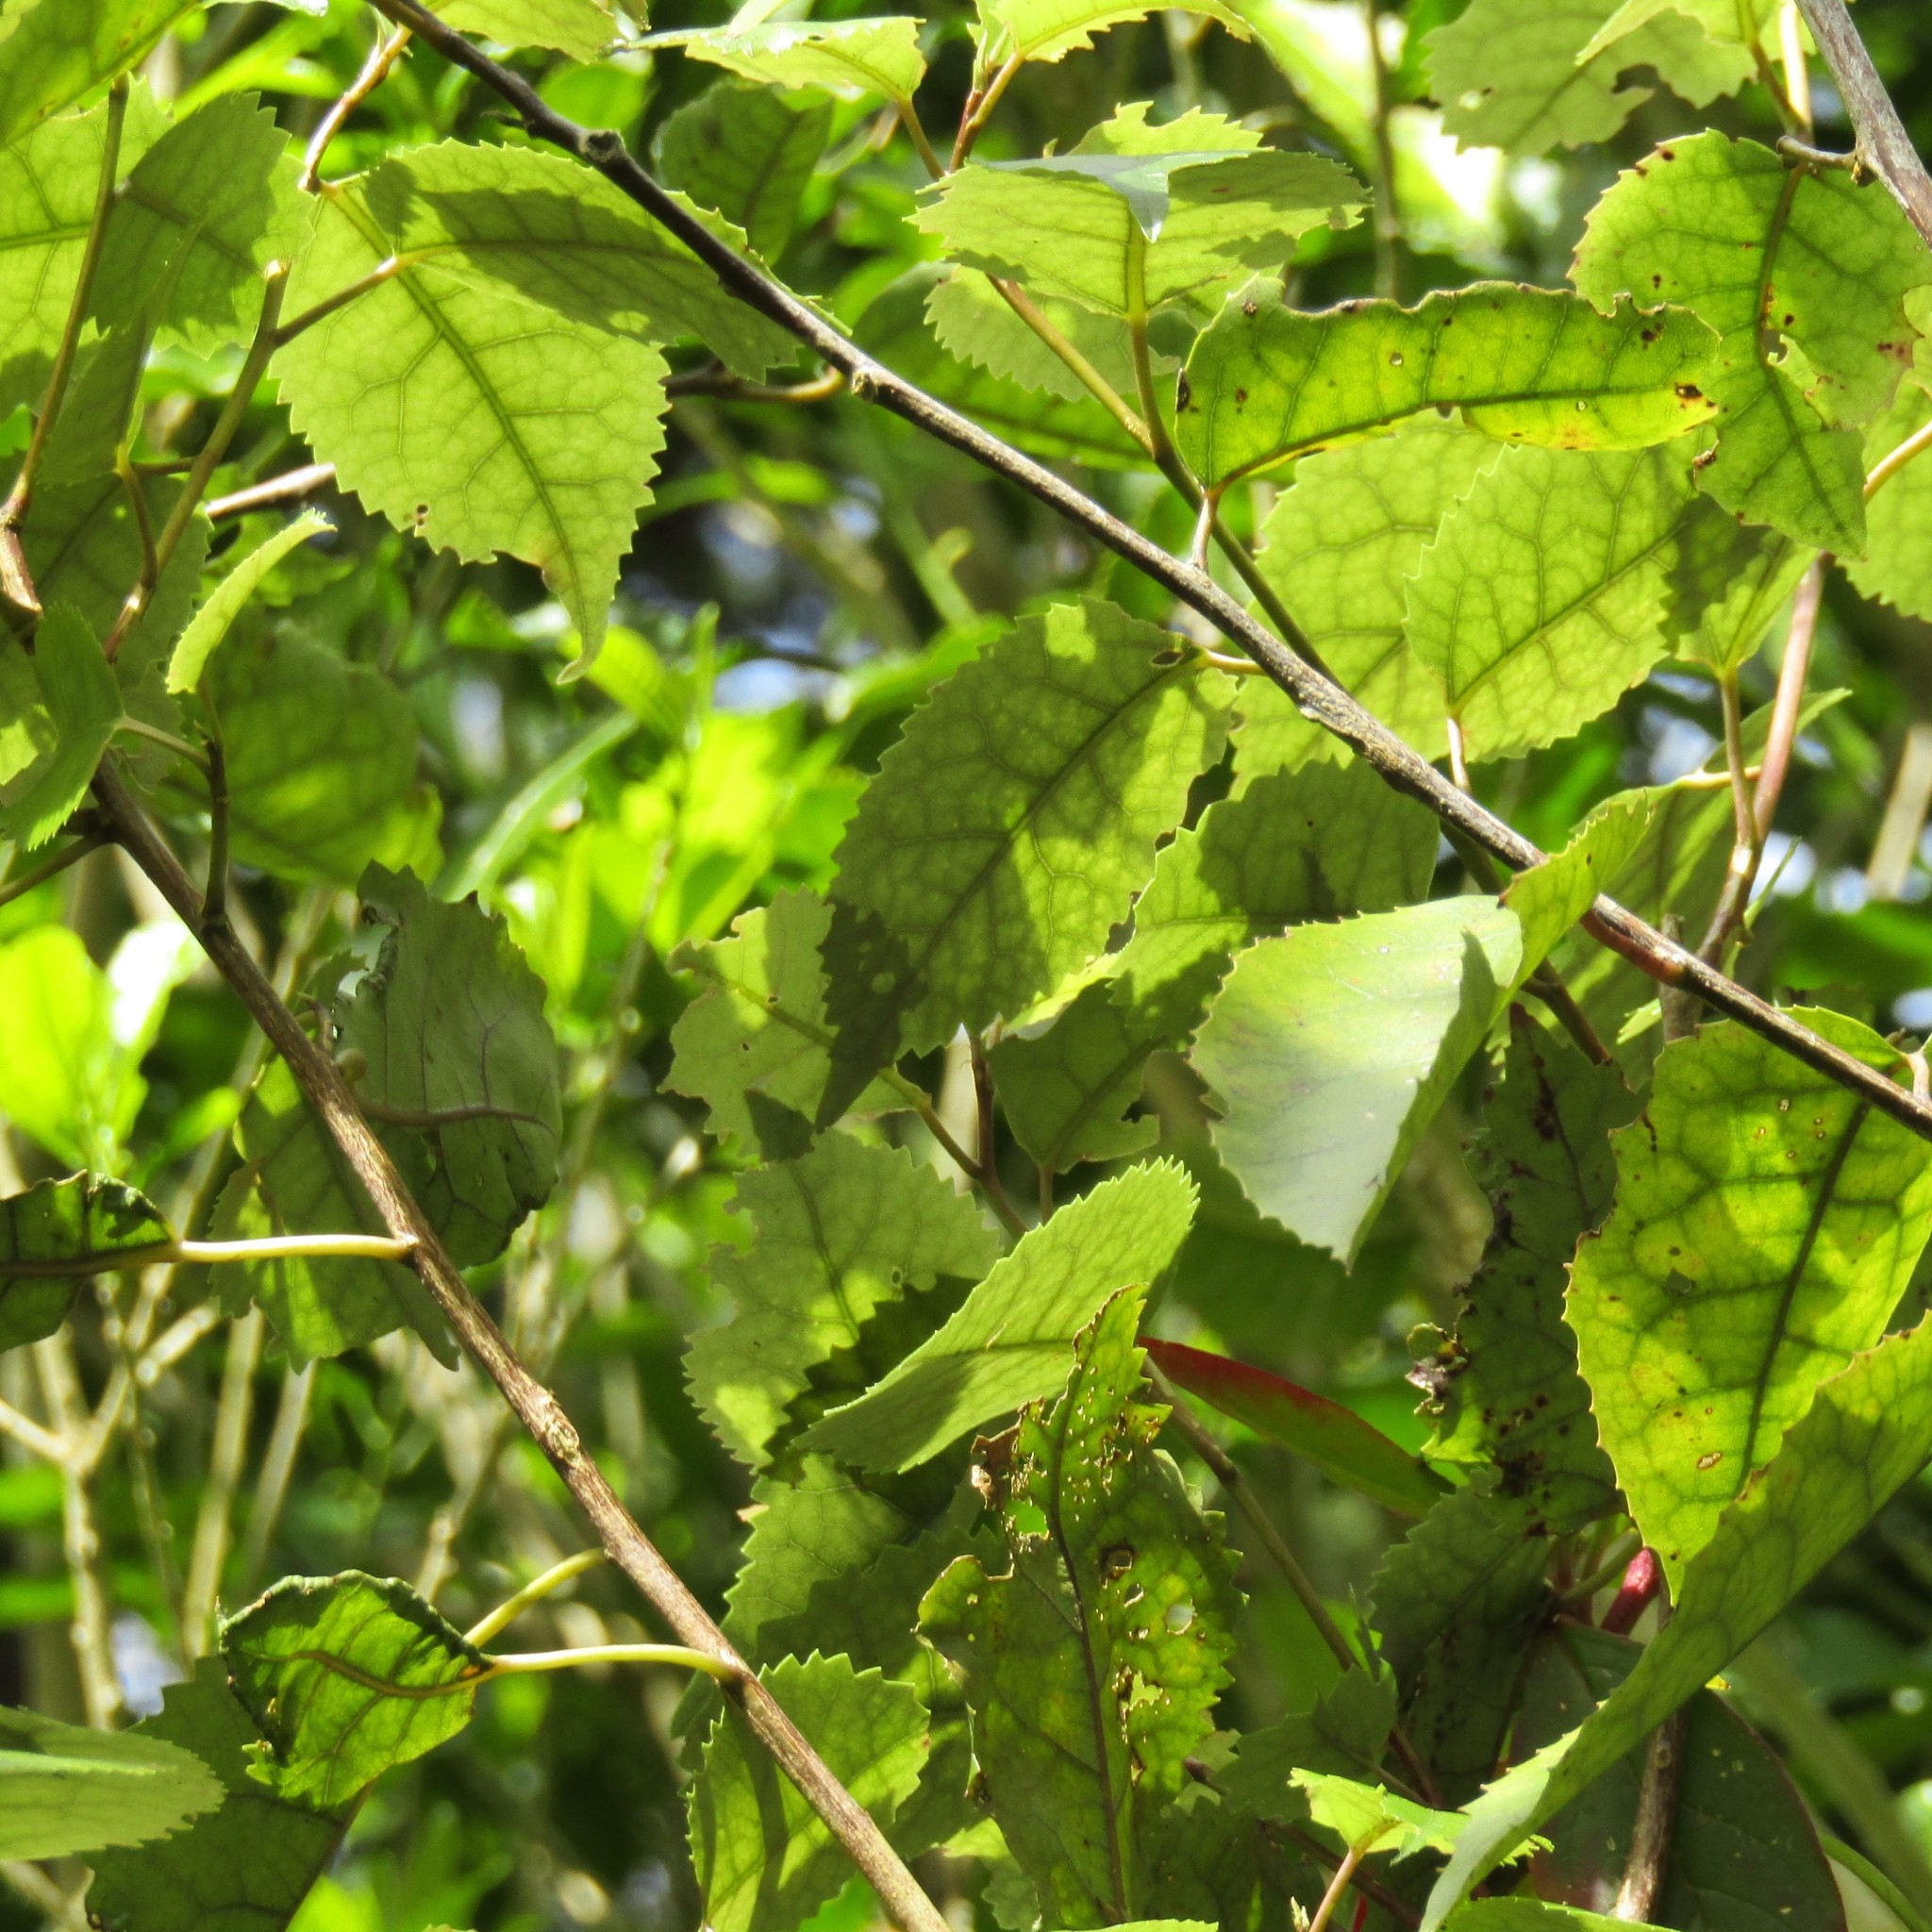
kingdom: Plantae
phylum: Tracheophyta
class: Magnoliopsida
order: Malvales
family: Malvaceae
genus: Hoheria
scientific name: Hoheria populnea
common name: Lacebark
